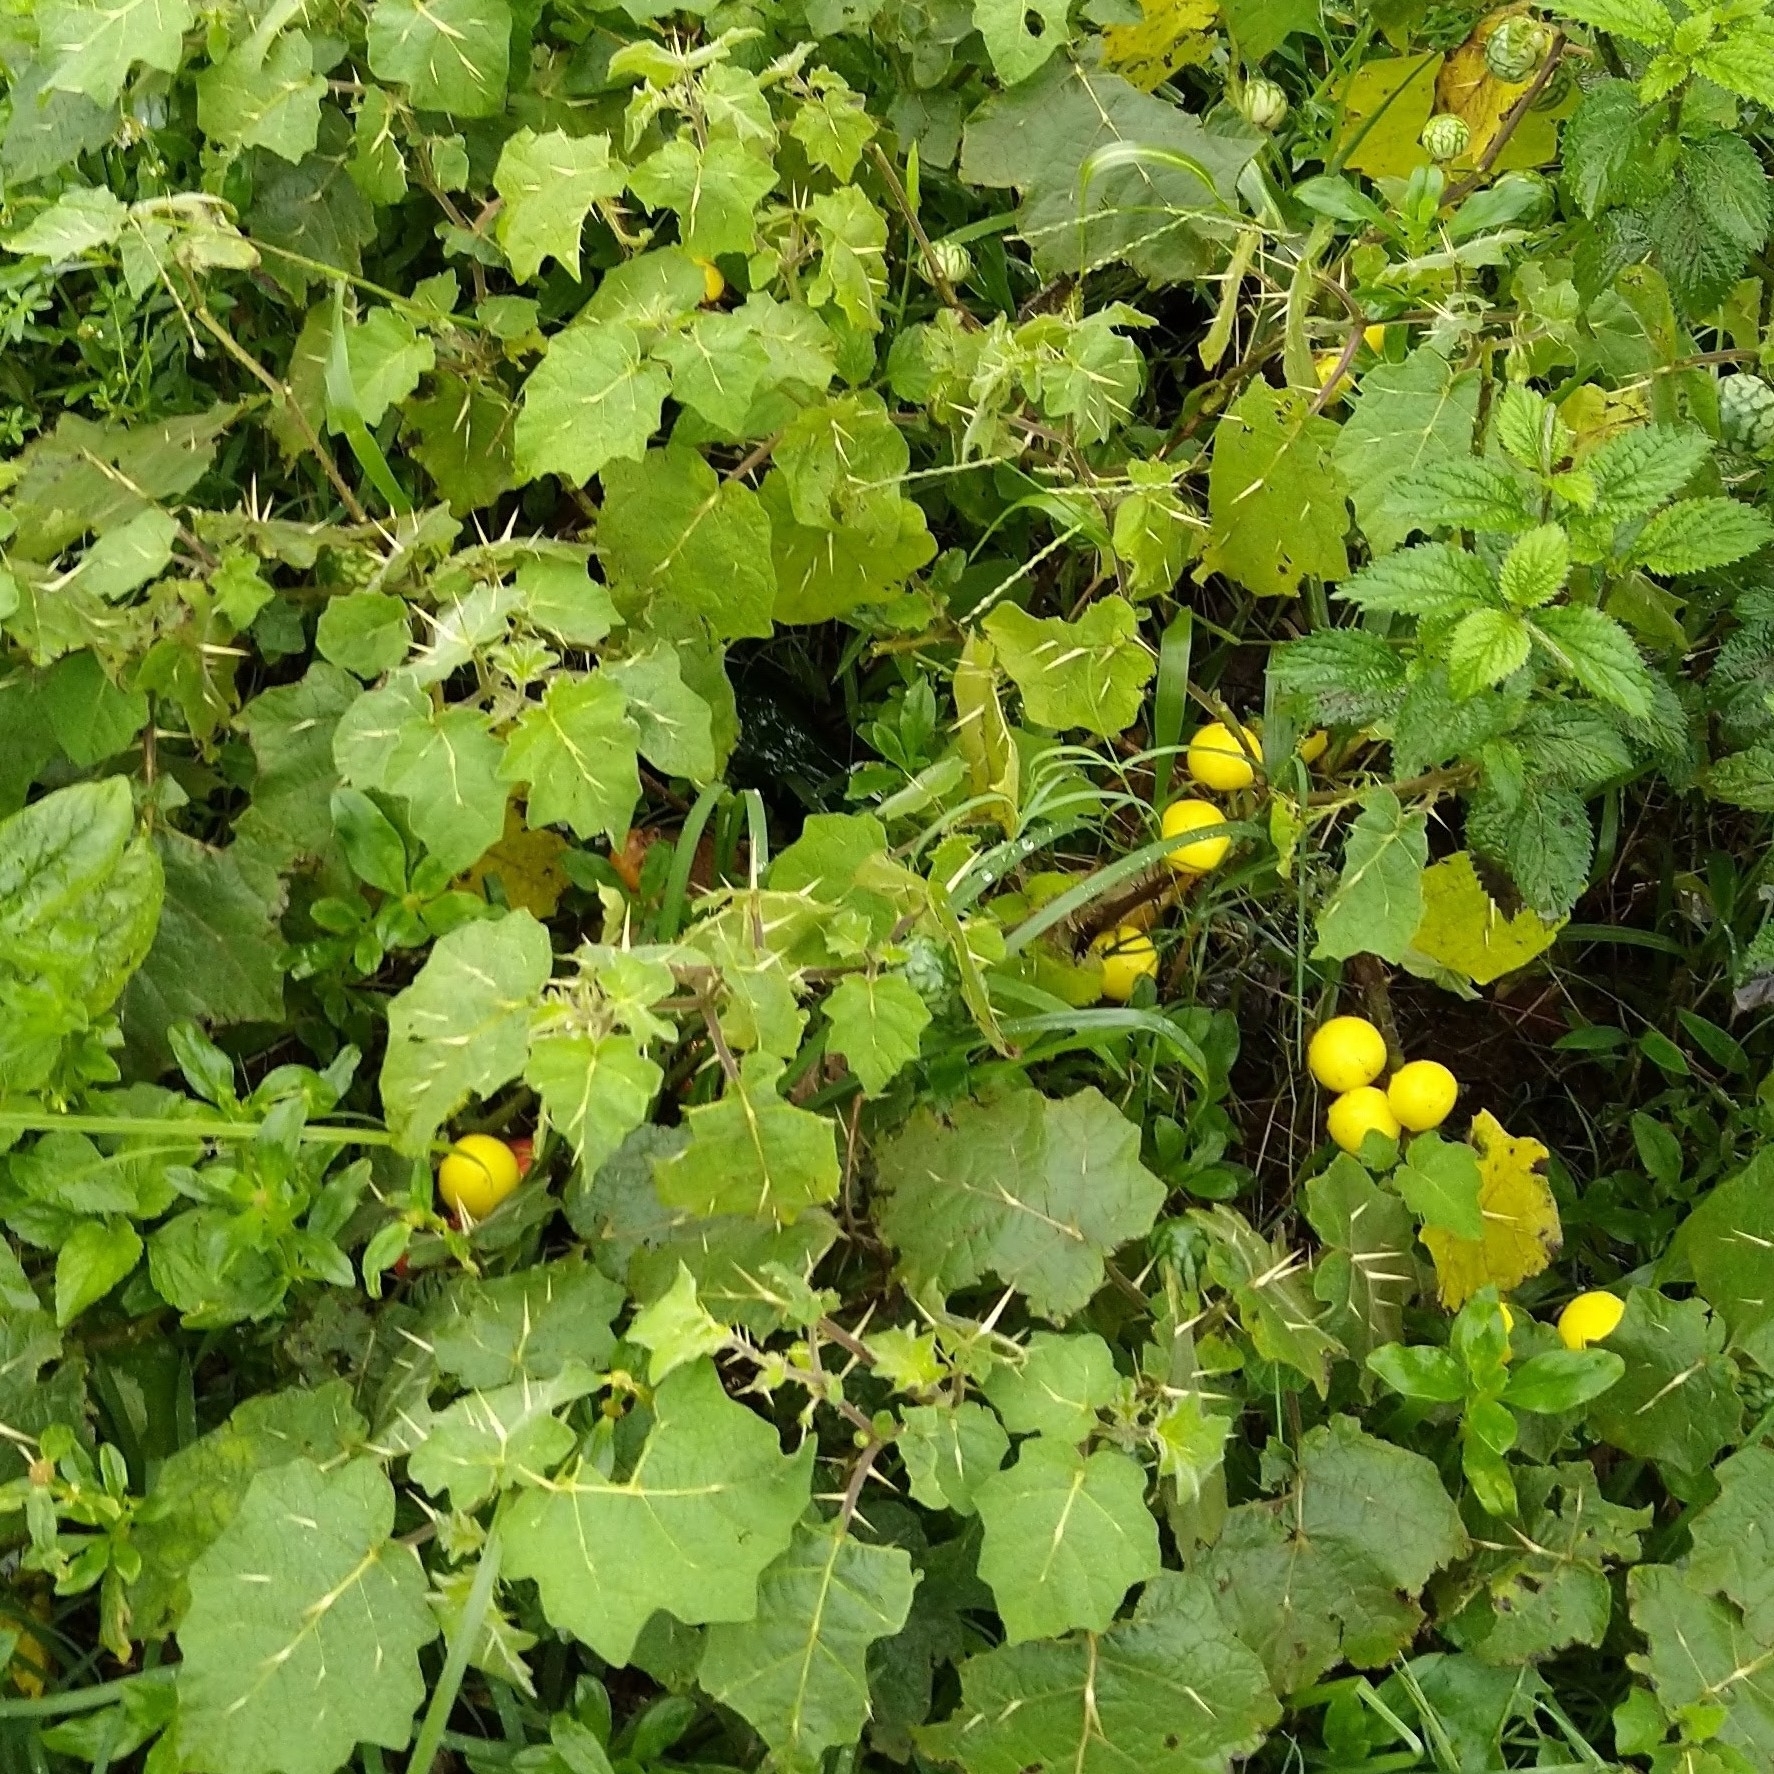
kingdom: Plantae
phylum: Tracheophyta
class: Magnoliopsida
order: Solanales
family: Solanaceae
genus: Solanum
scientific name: Solanum viarum
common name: Tropical soda apple
